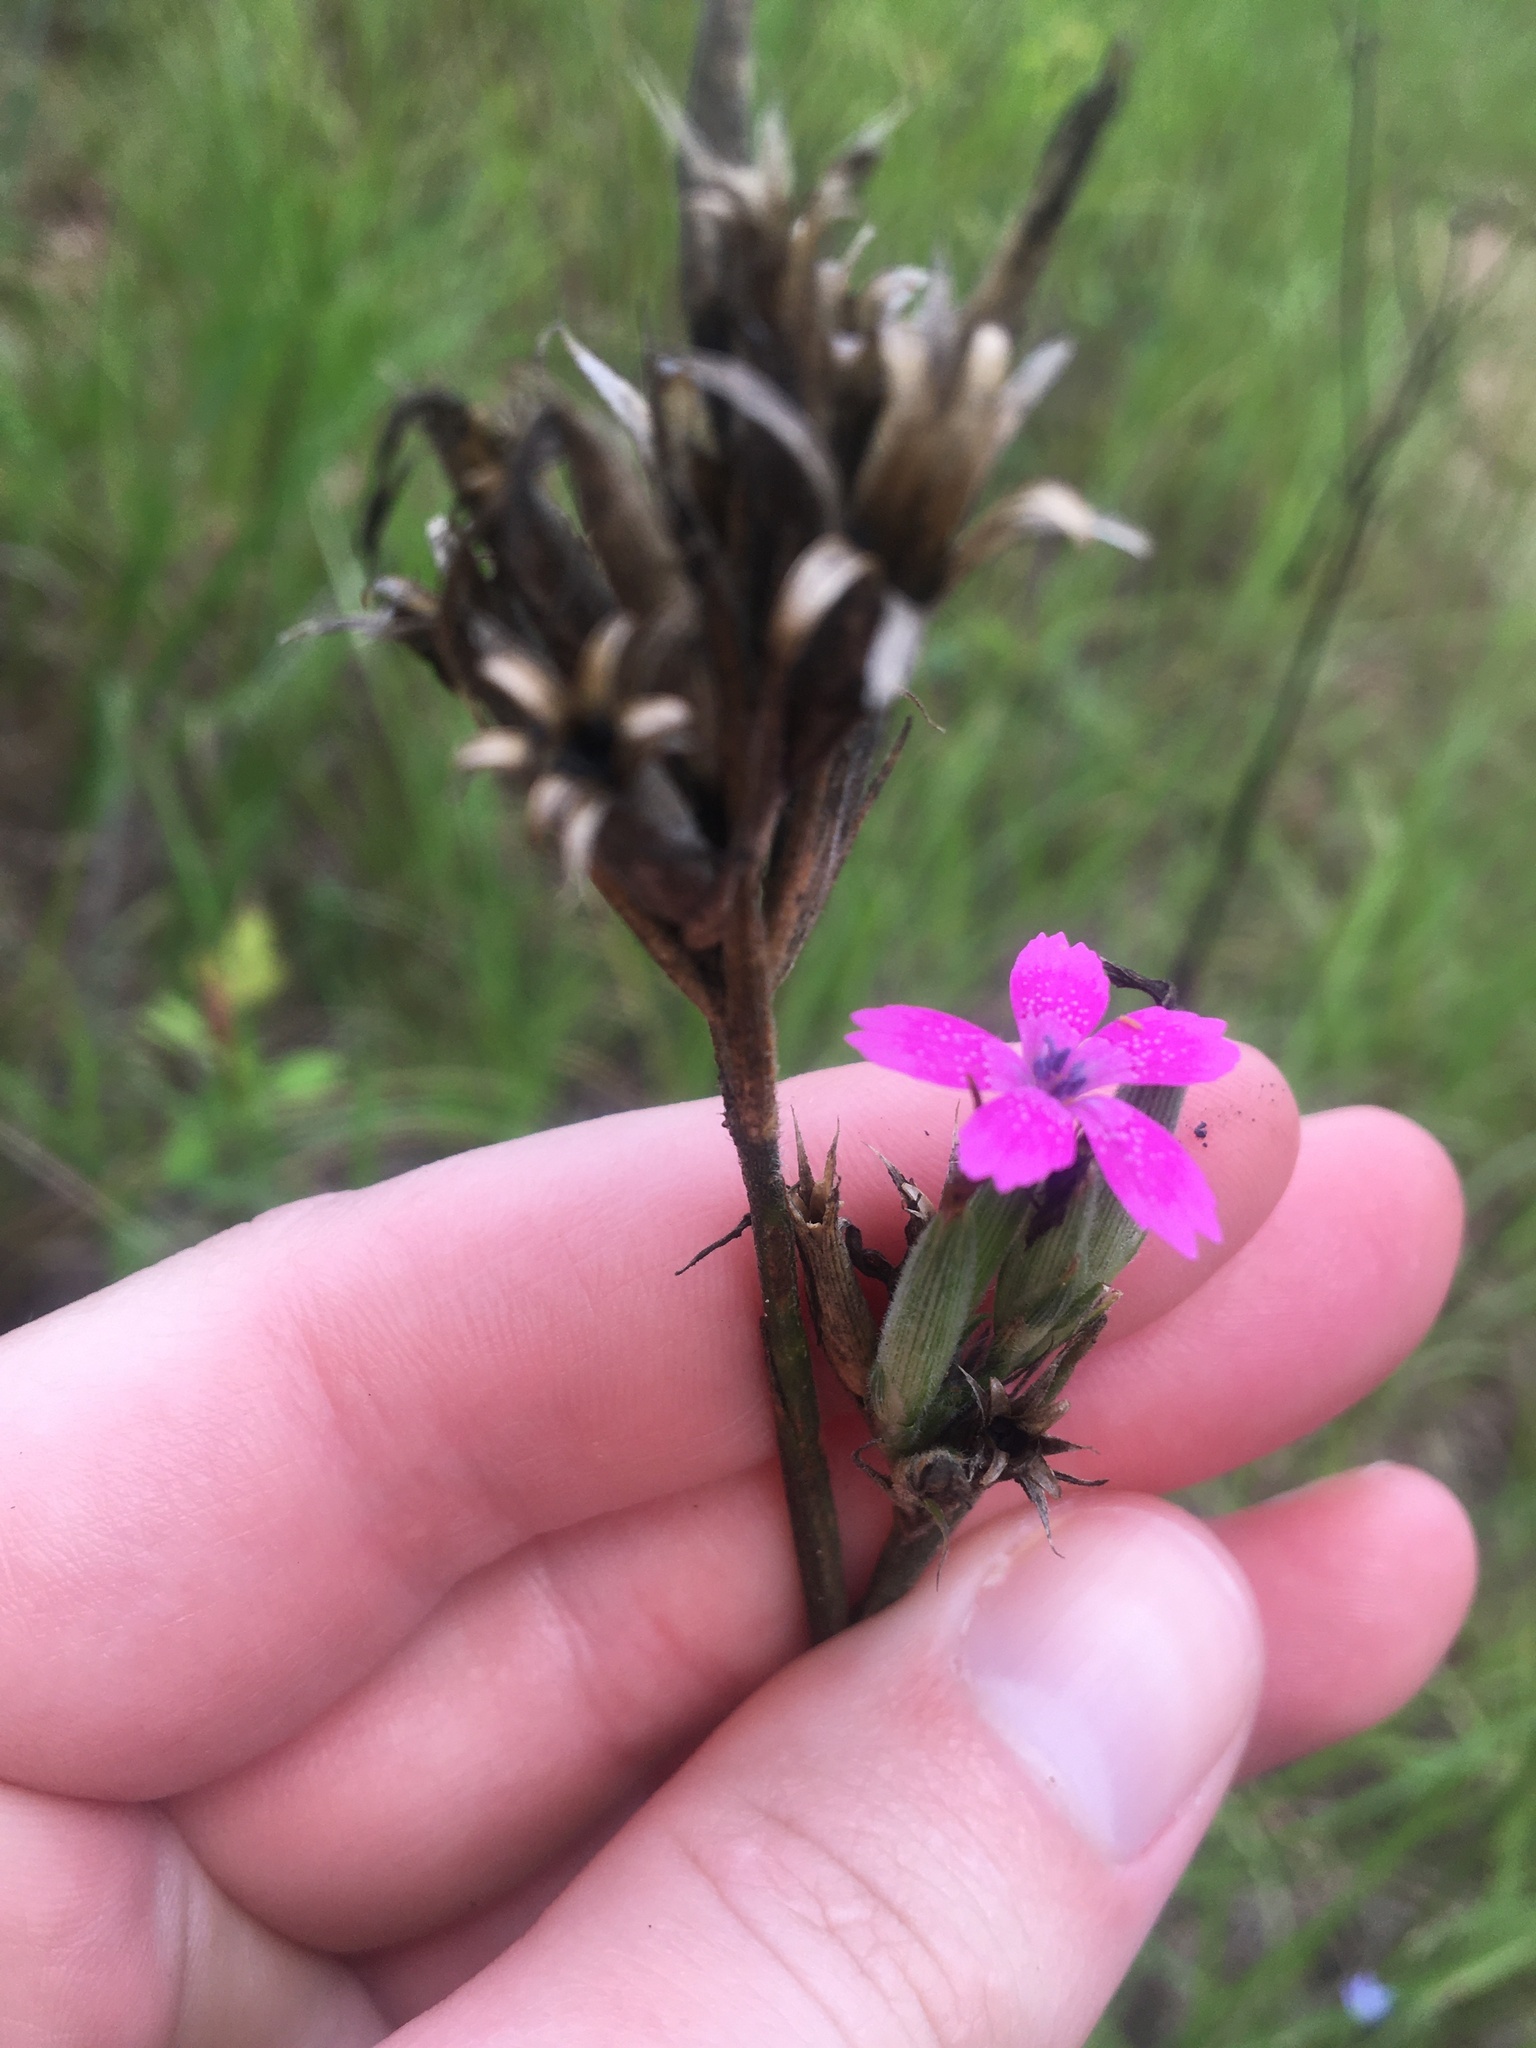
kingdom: Plantae
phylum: Tracheophyta
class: Magnoliopsida
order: Caryophyllales
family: Caryophyllaceae
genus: Dianthus
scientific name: Dianthus armeria
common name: Deptford pink
